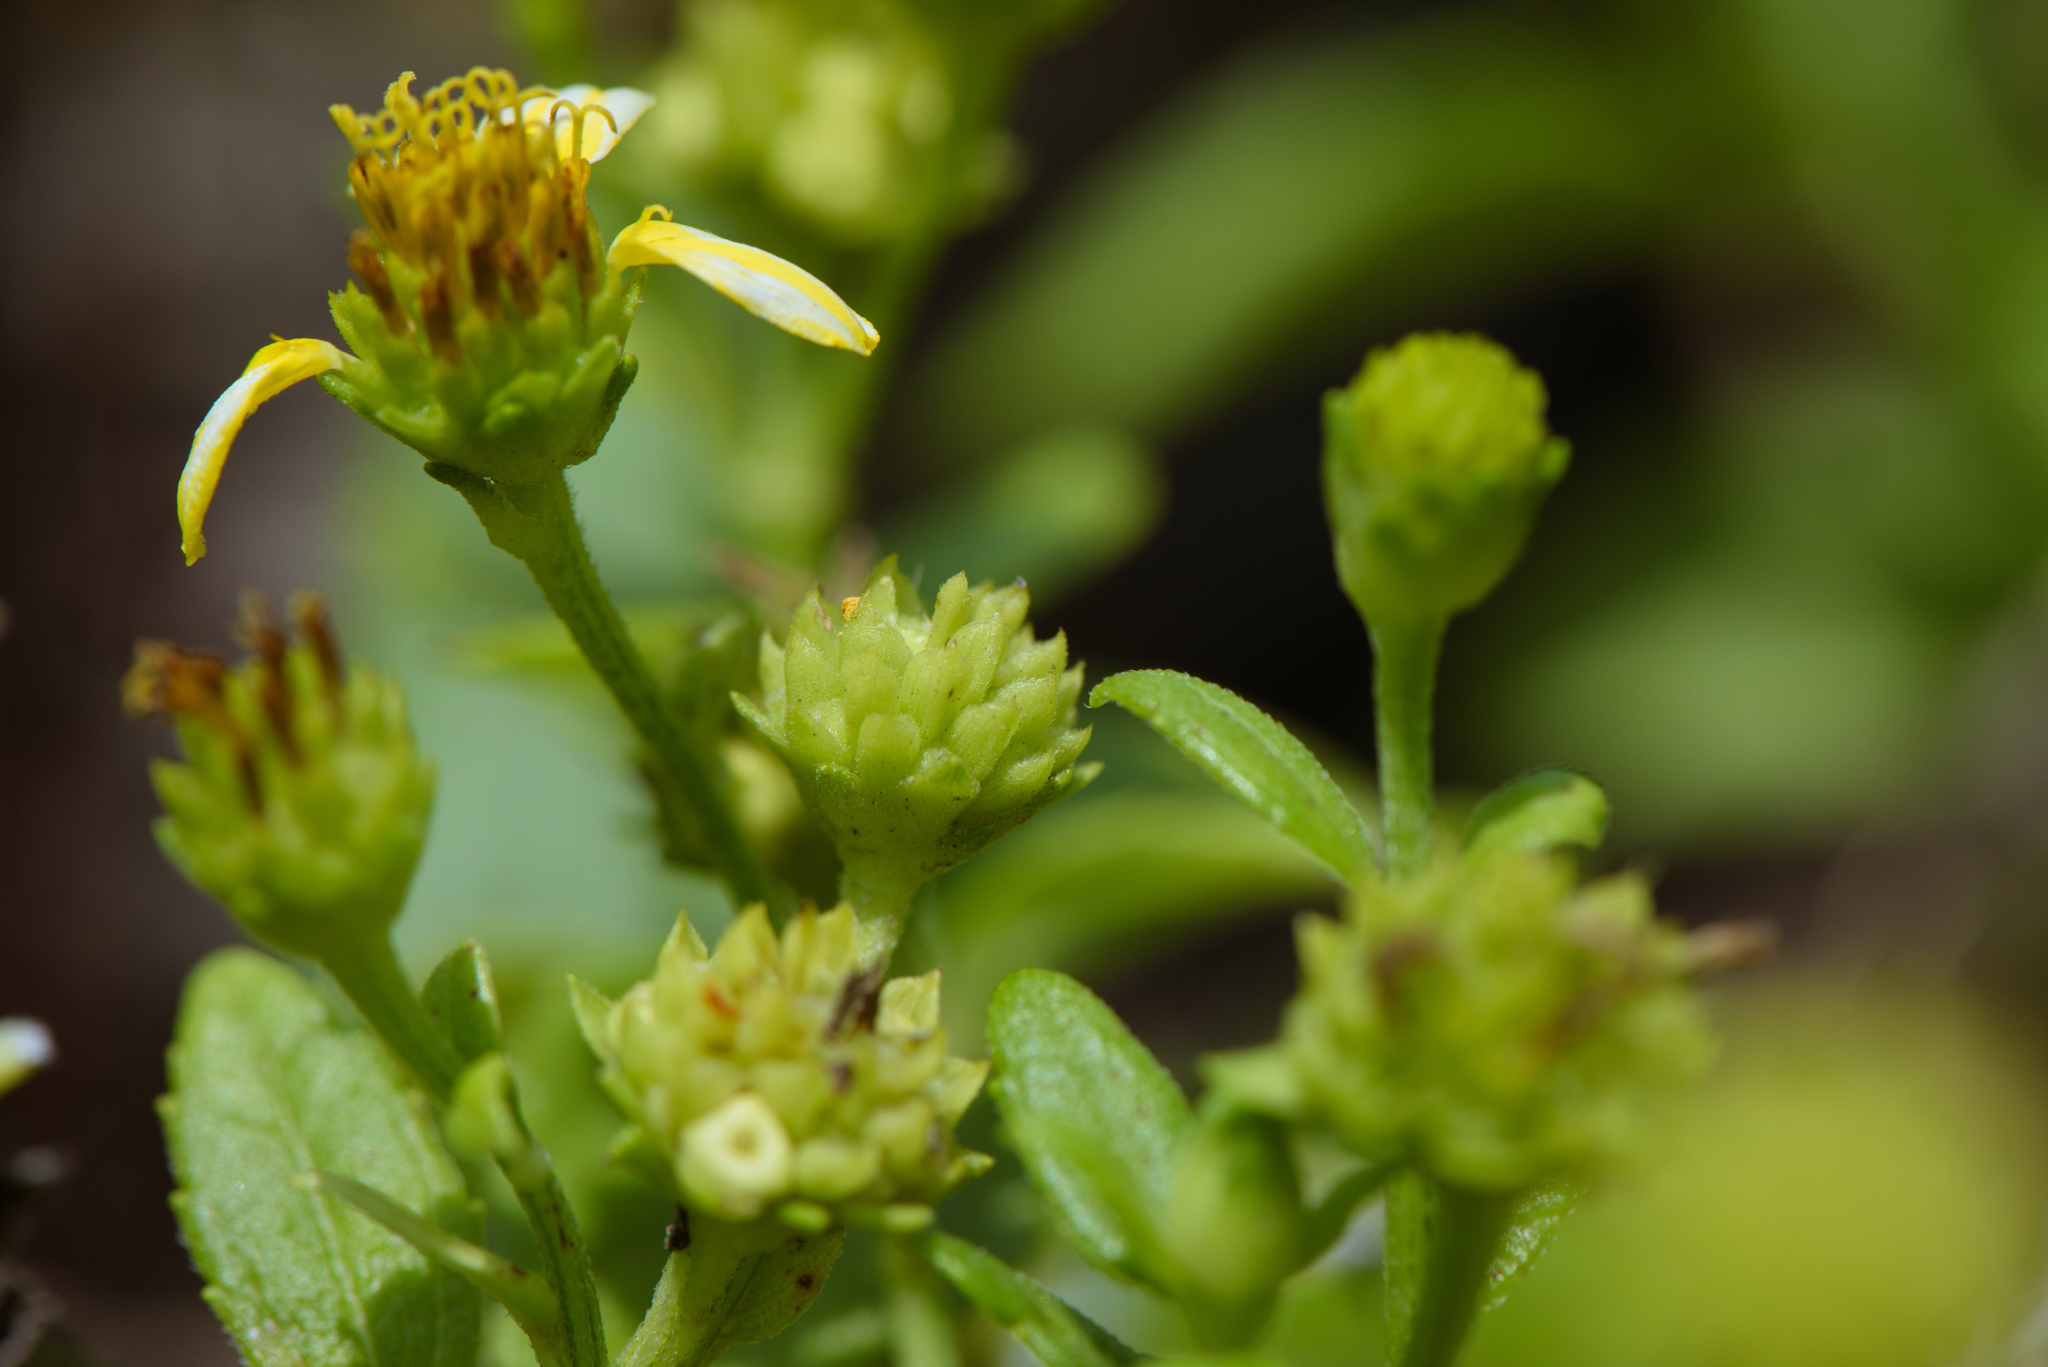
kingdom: Plantae
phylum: Tracheophyta
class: Magnoliopsida
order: Asterales
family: Asteraceae
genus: Melanthera
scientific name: Melanthera prostrata
